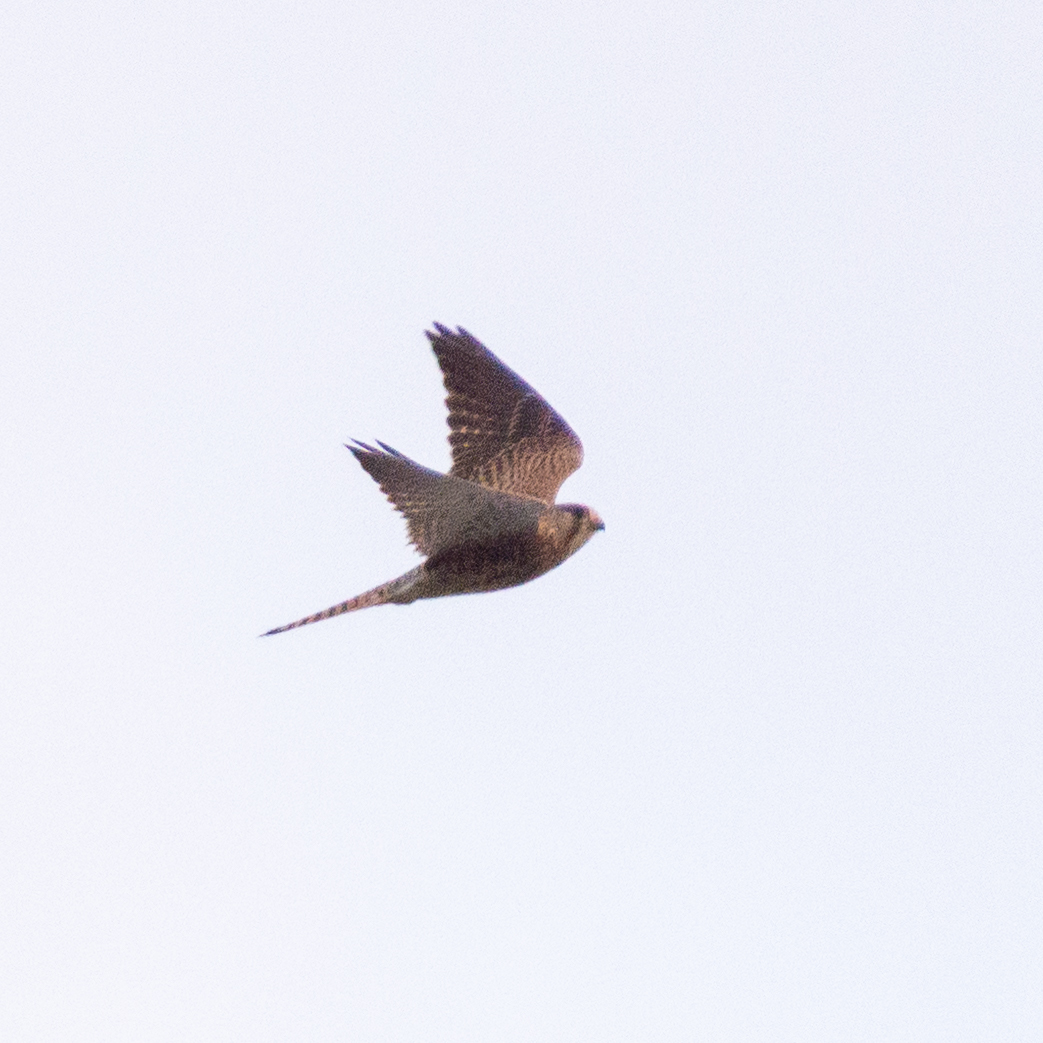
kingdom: Animalia
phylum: Chordata
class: Aves
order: Falconiformes
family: Falconidae
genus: Falco
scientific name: Falco tinnunculus
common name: Common kestrel
